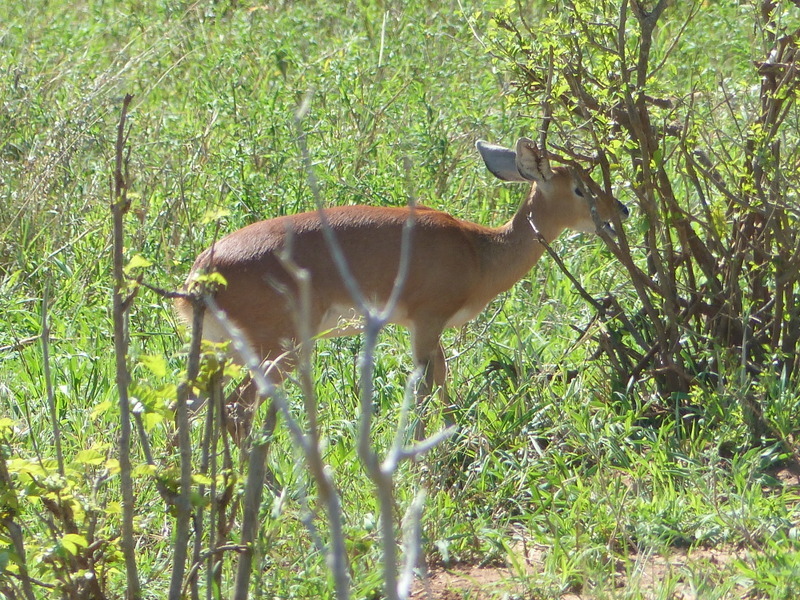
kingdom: Animalia
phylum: Chordata
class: Mammalia
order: Artiodactyla
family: Bovidae
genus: Raphicerus
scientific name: Raphicerus campestris
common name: Steenbok
